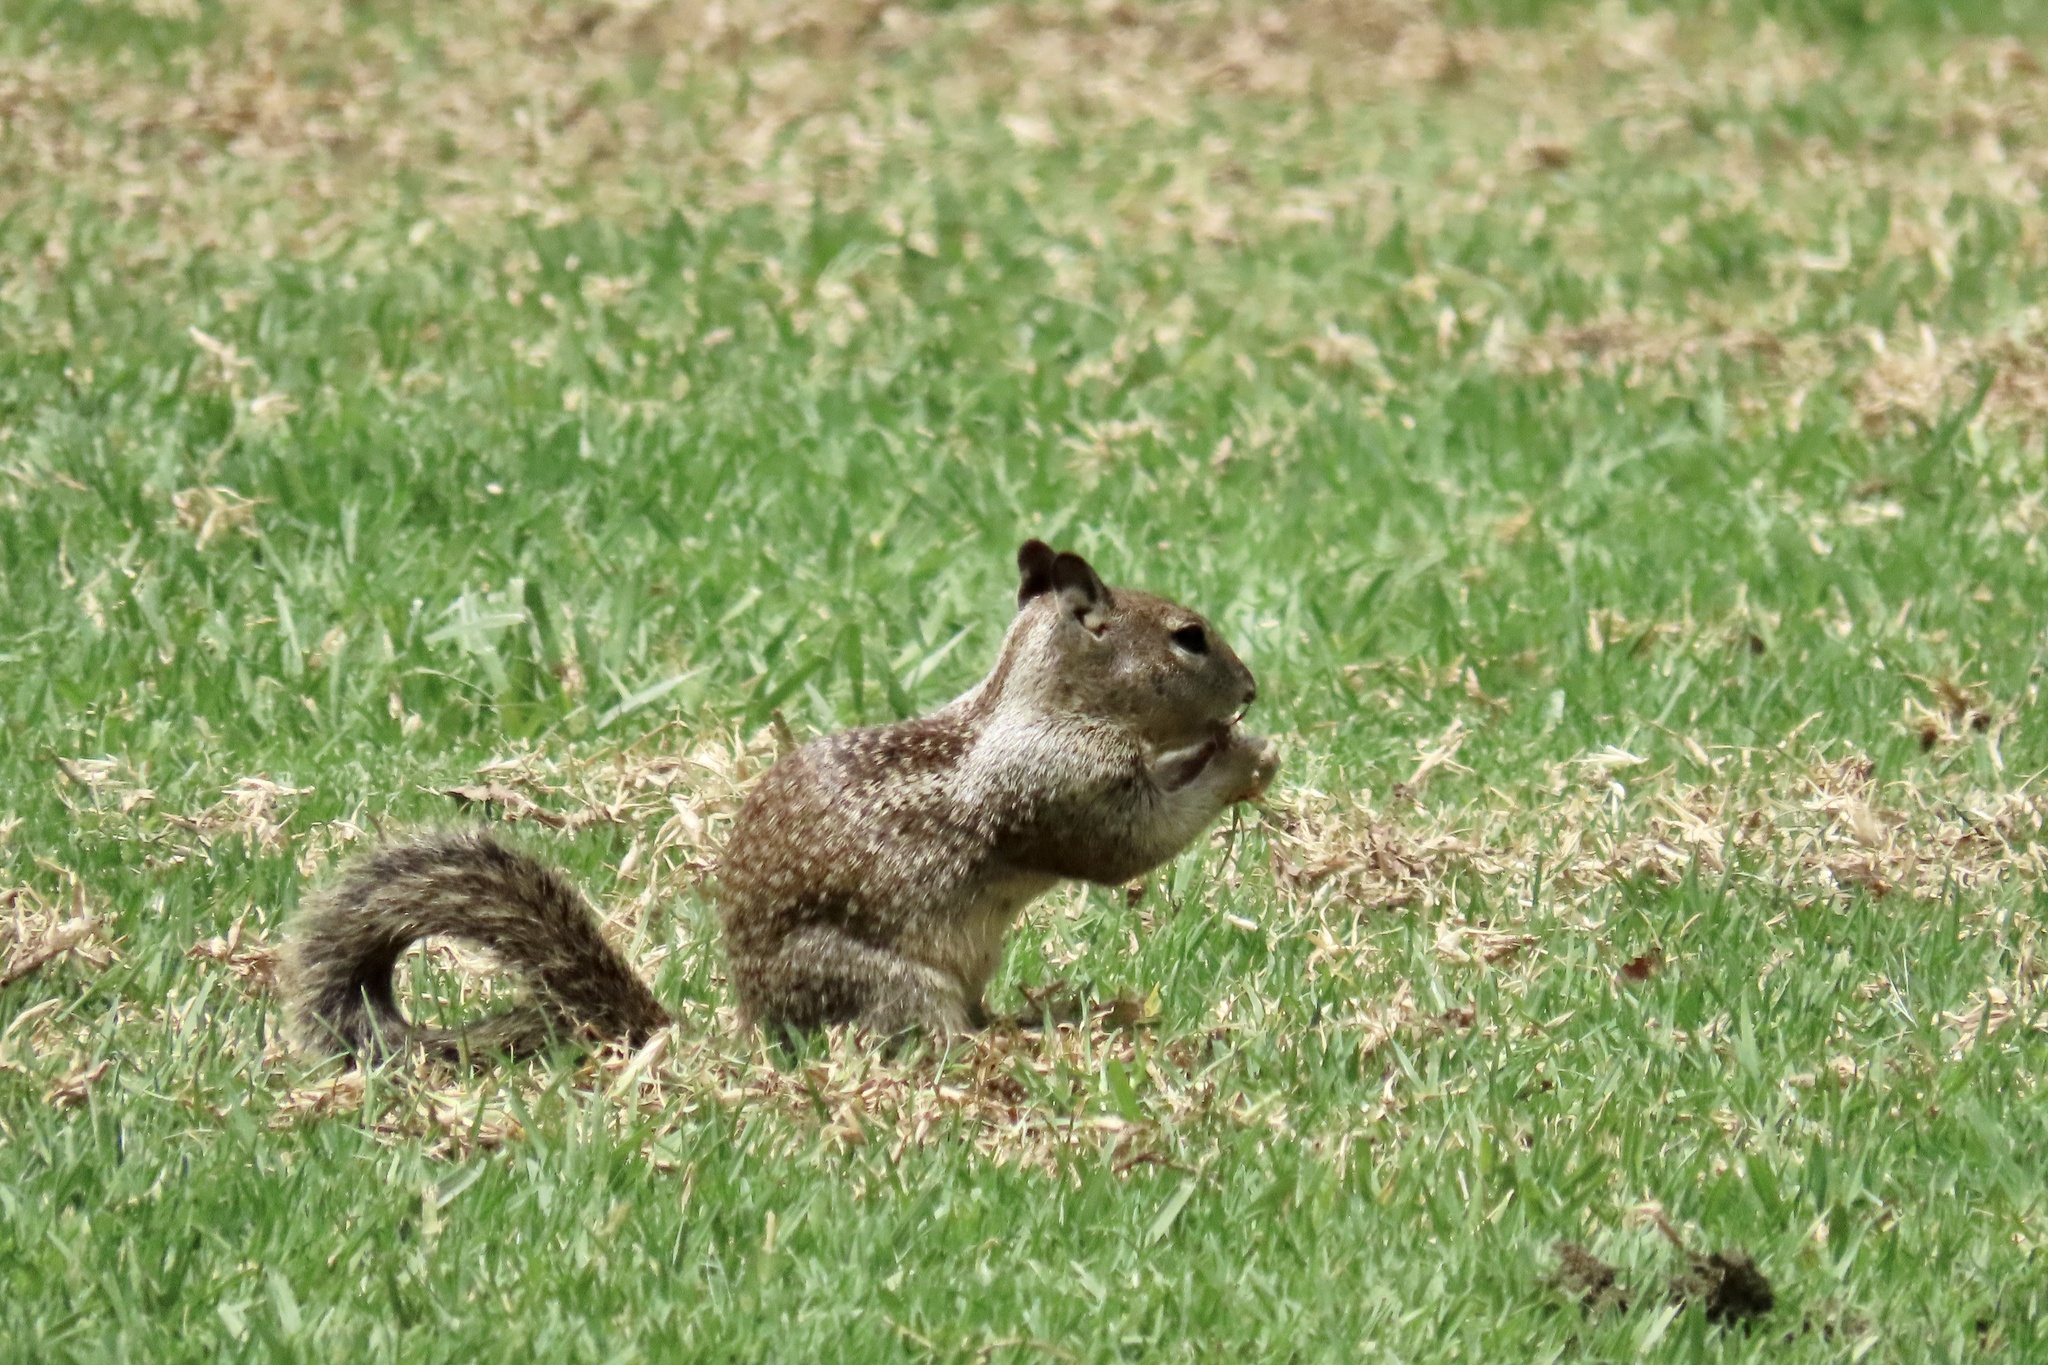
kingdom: Animalia
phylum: Chordata
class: Mammalia
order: Rodentia
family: Sciuridae
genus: Otospermophilus
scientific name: Otospermophilus beecheyi
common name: California ground squirrel
